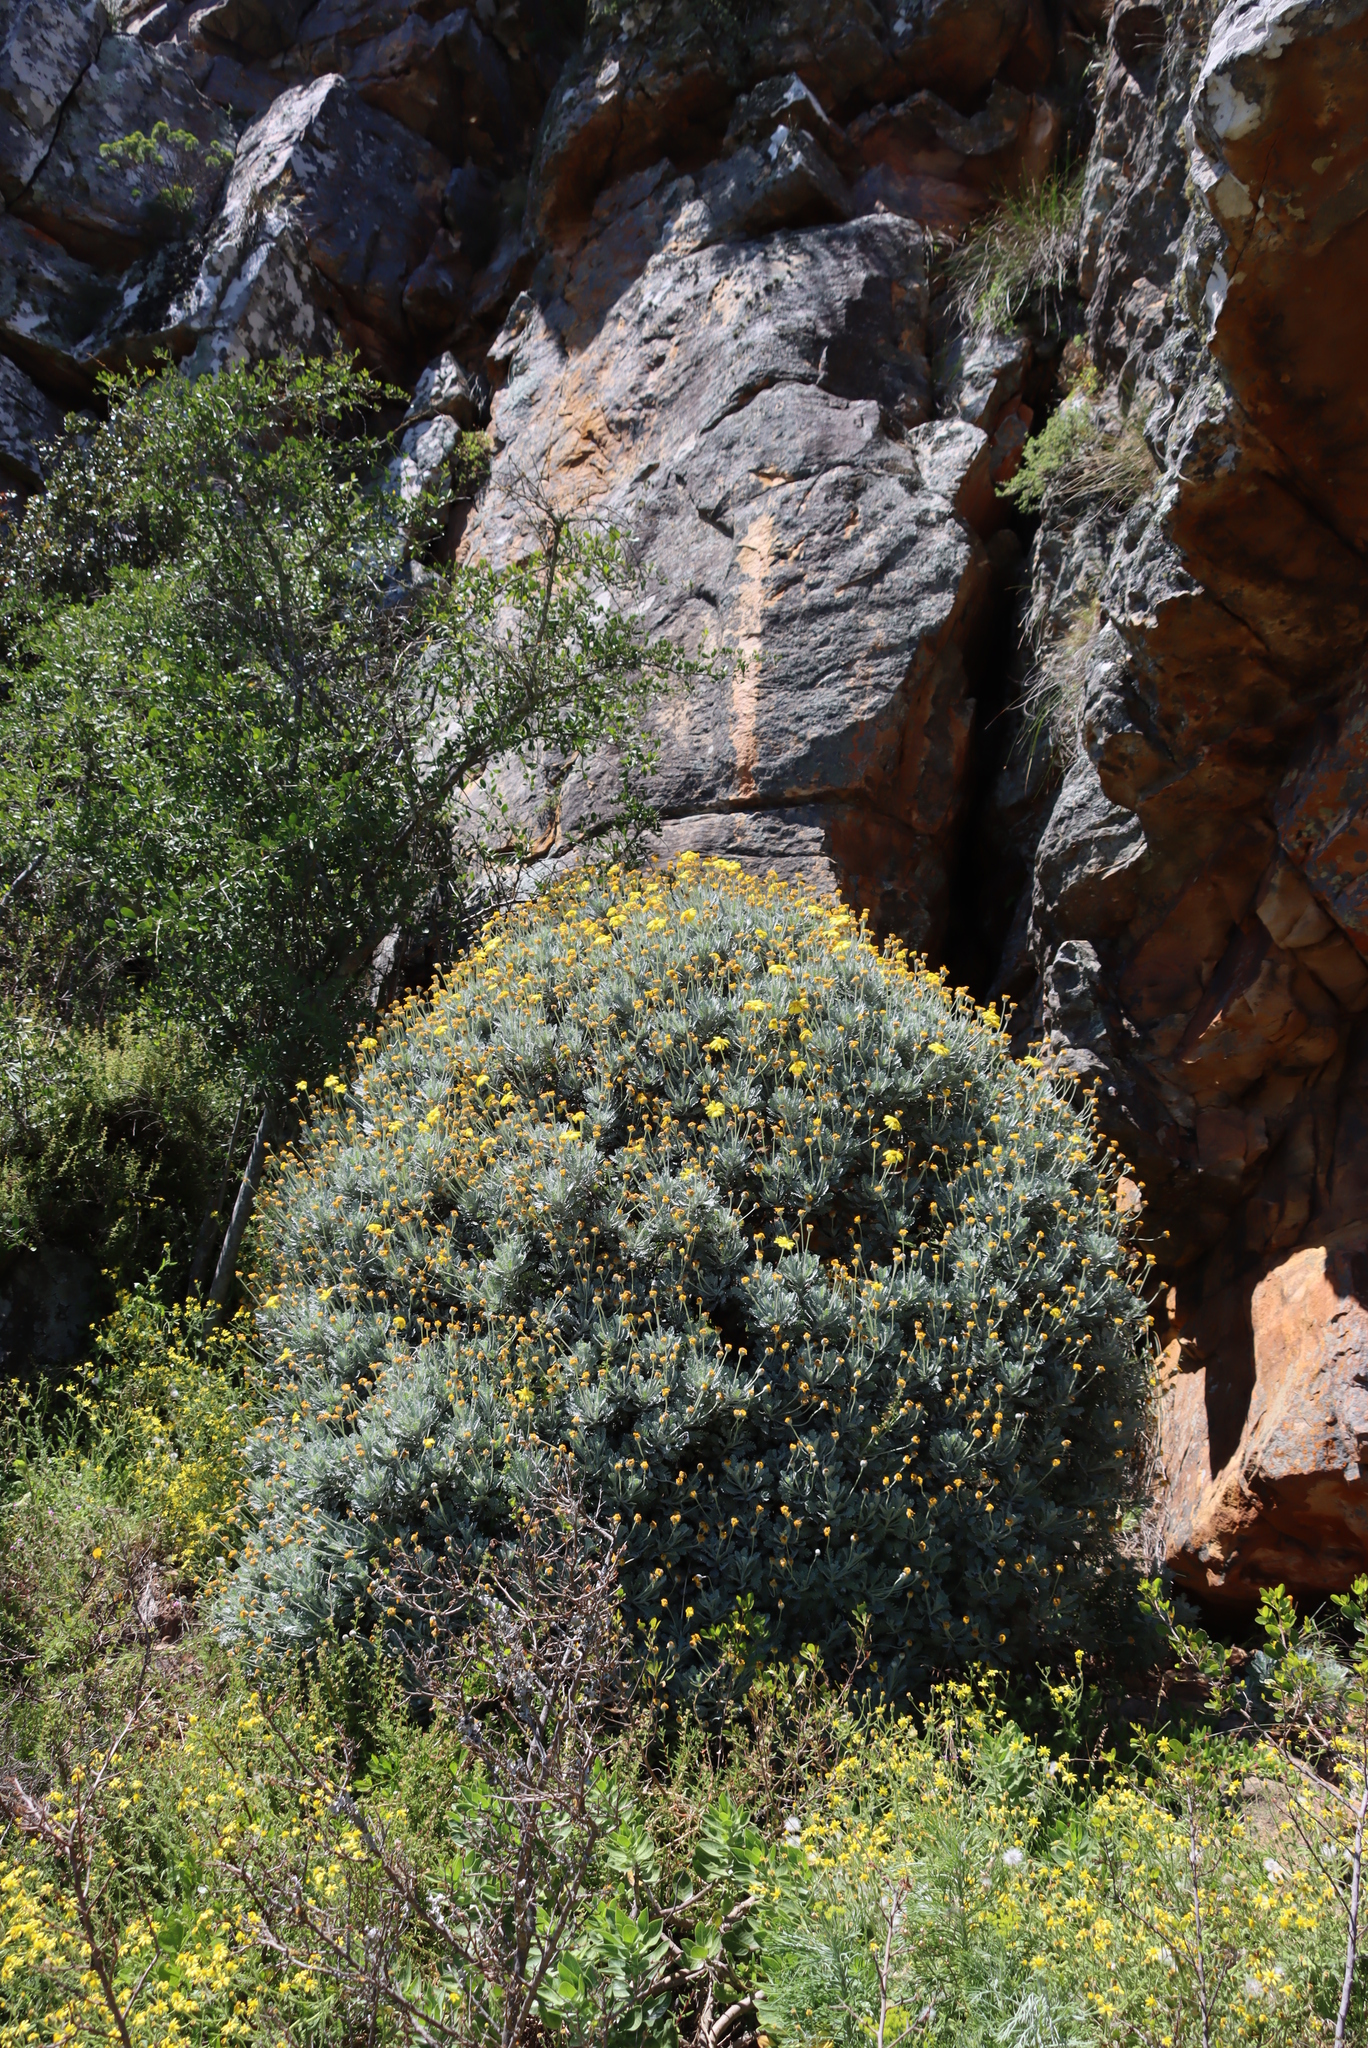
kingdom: Plantae
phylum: Tracheophyta
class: Magnoliopsida
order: Asterales
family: Asteraceae
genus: Euryops
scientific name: Euryops pectinatus
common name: Gray-leaf euryops
